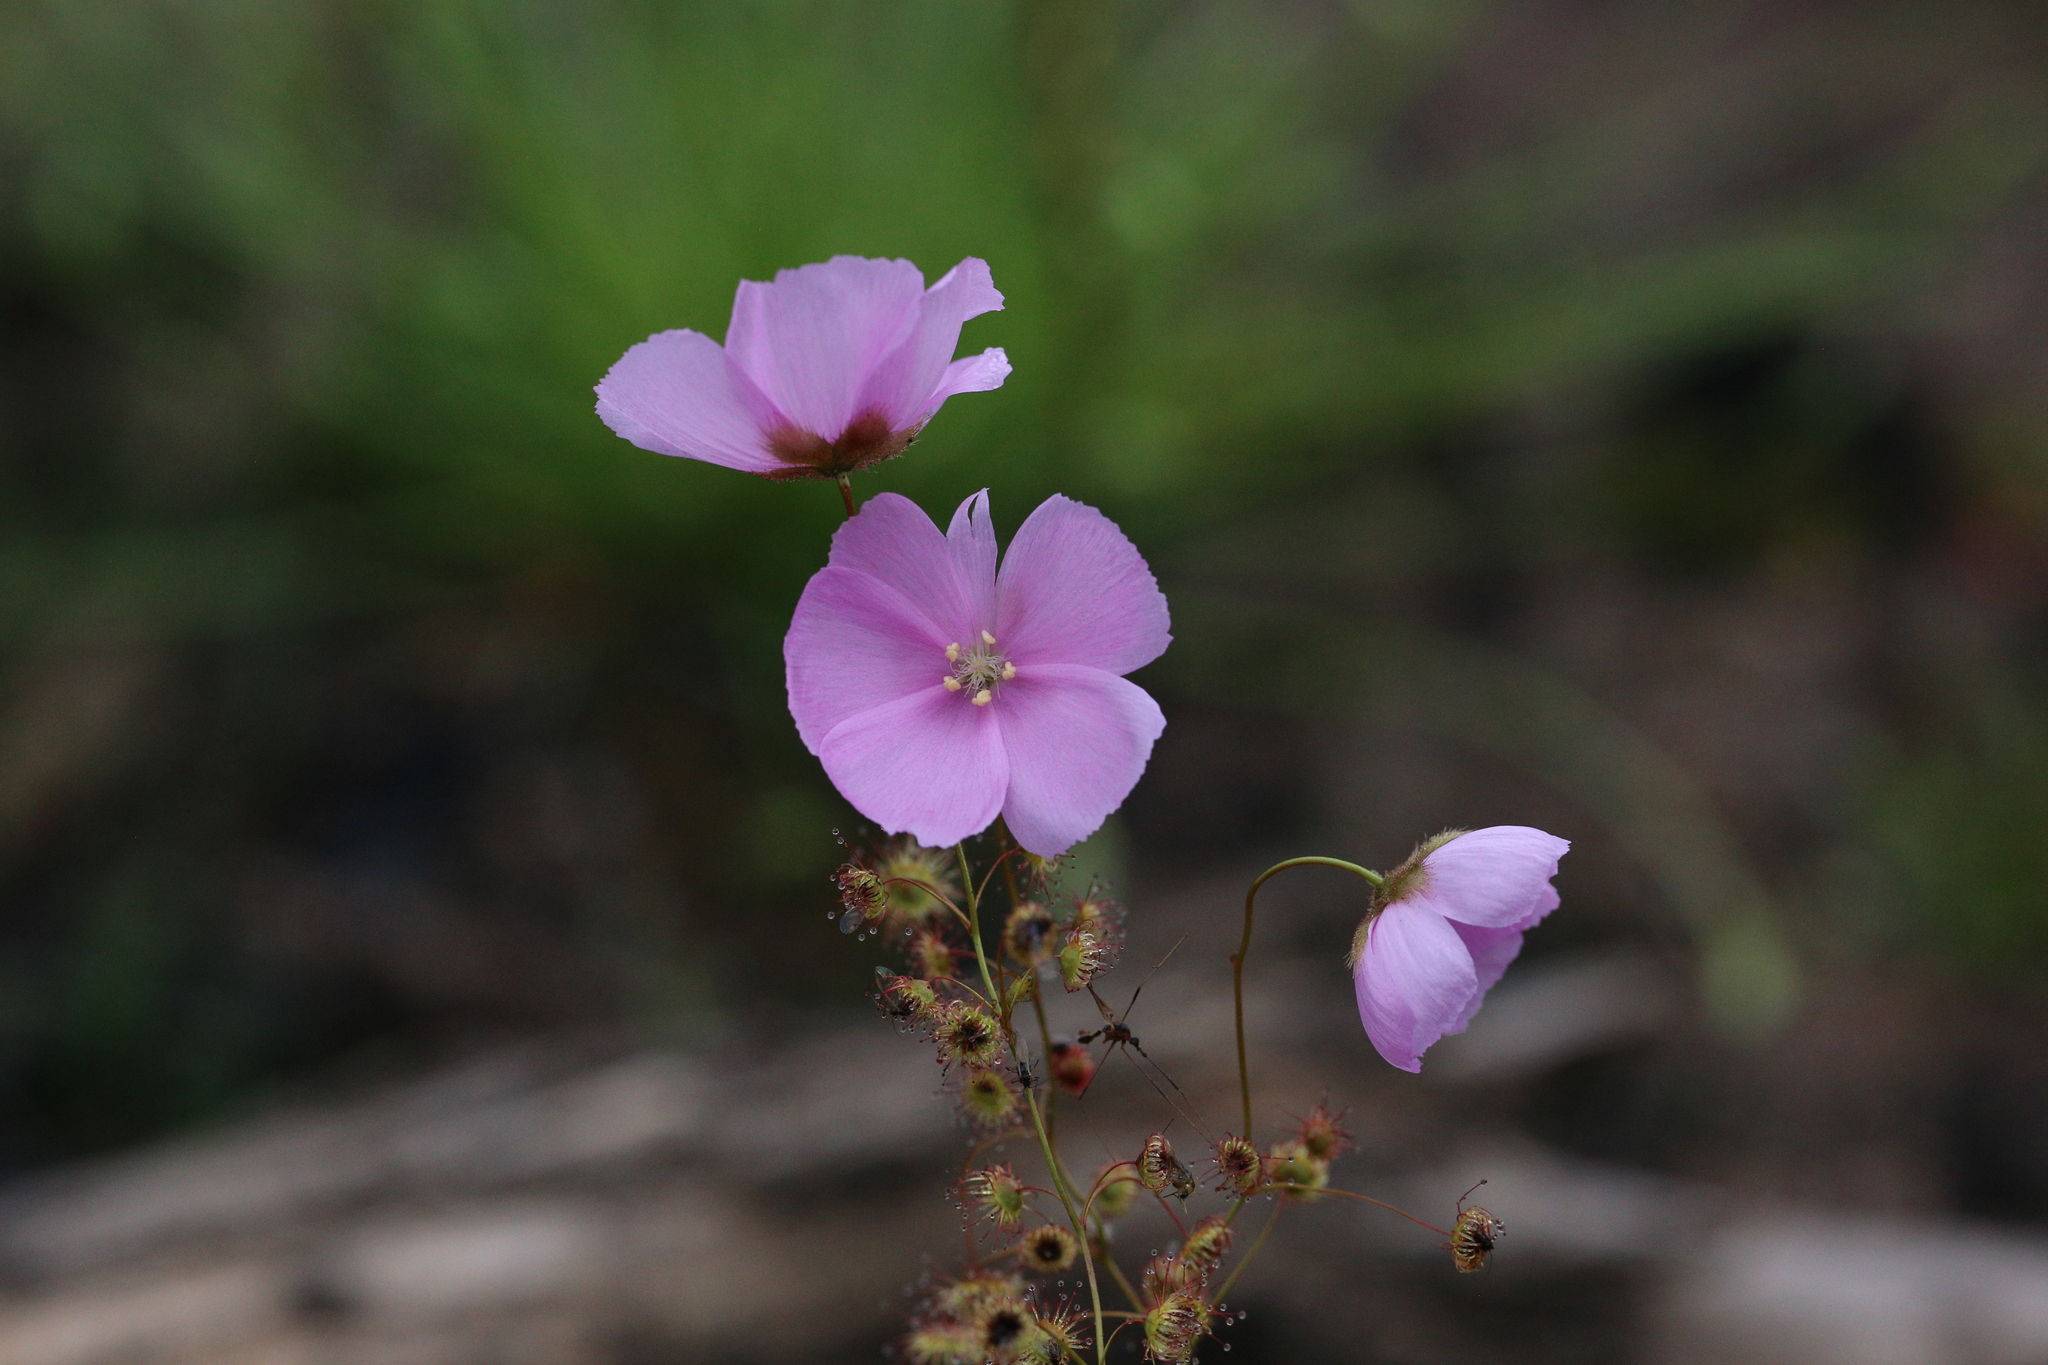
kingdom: Plantae
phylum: Tracheophyta
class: Magnoliopsida
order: Caryophyllales
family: Droseraceae
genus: Drosera
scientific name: Drosera
